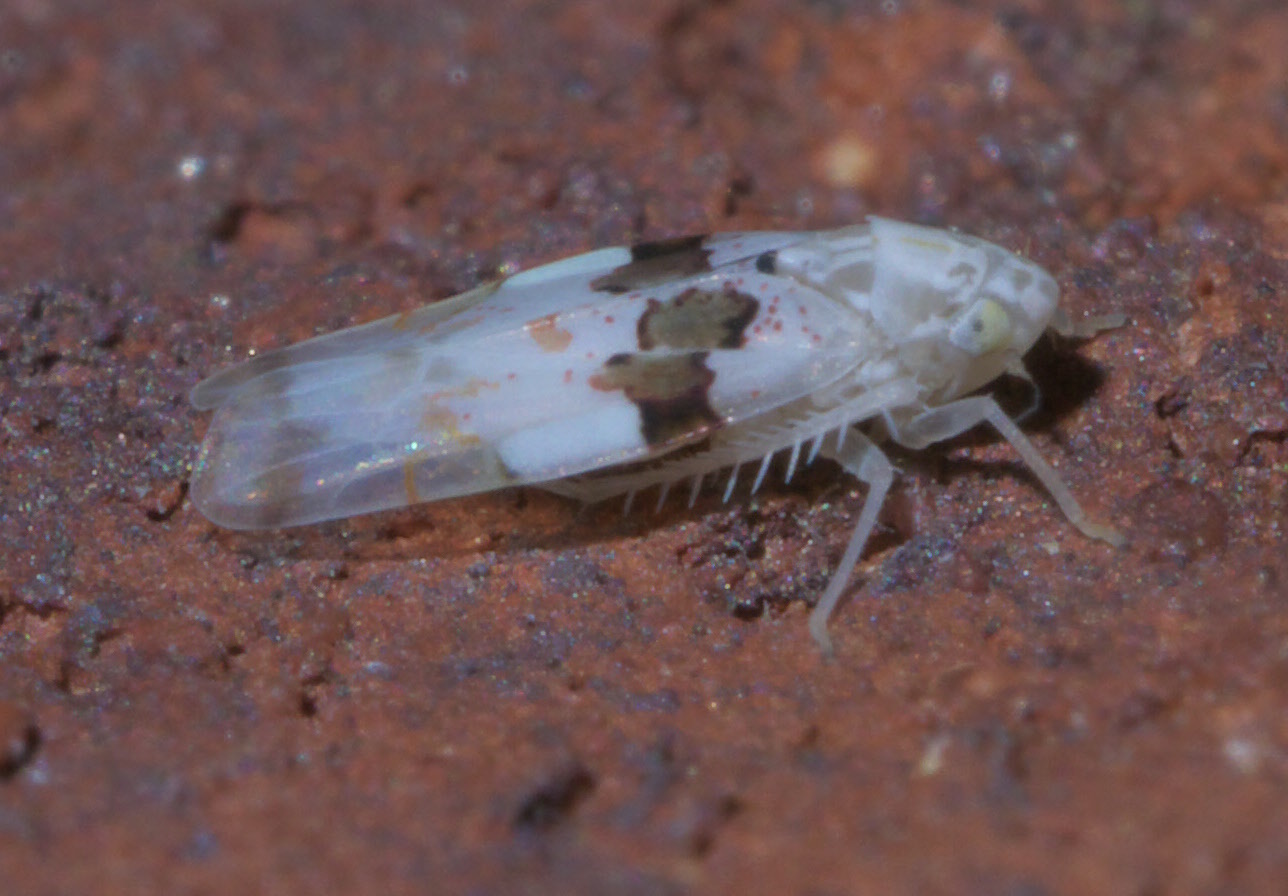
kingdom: Animalia
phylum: Arthropoda
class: Insecta
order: Hemiptera
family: Cicadellidae
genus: Hymetta
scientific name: Hymetta balteata
